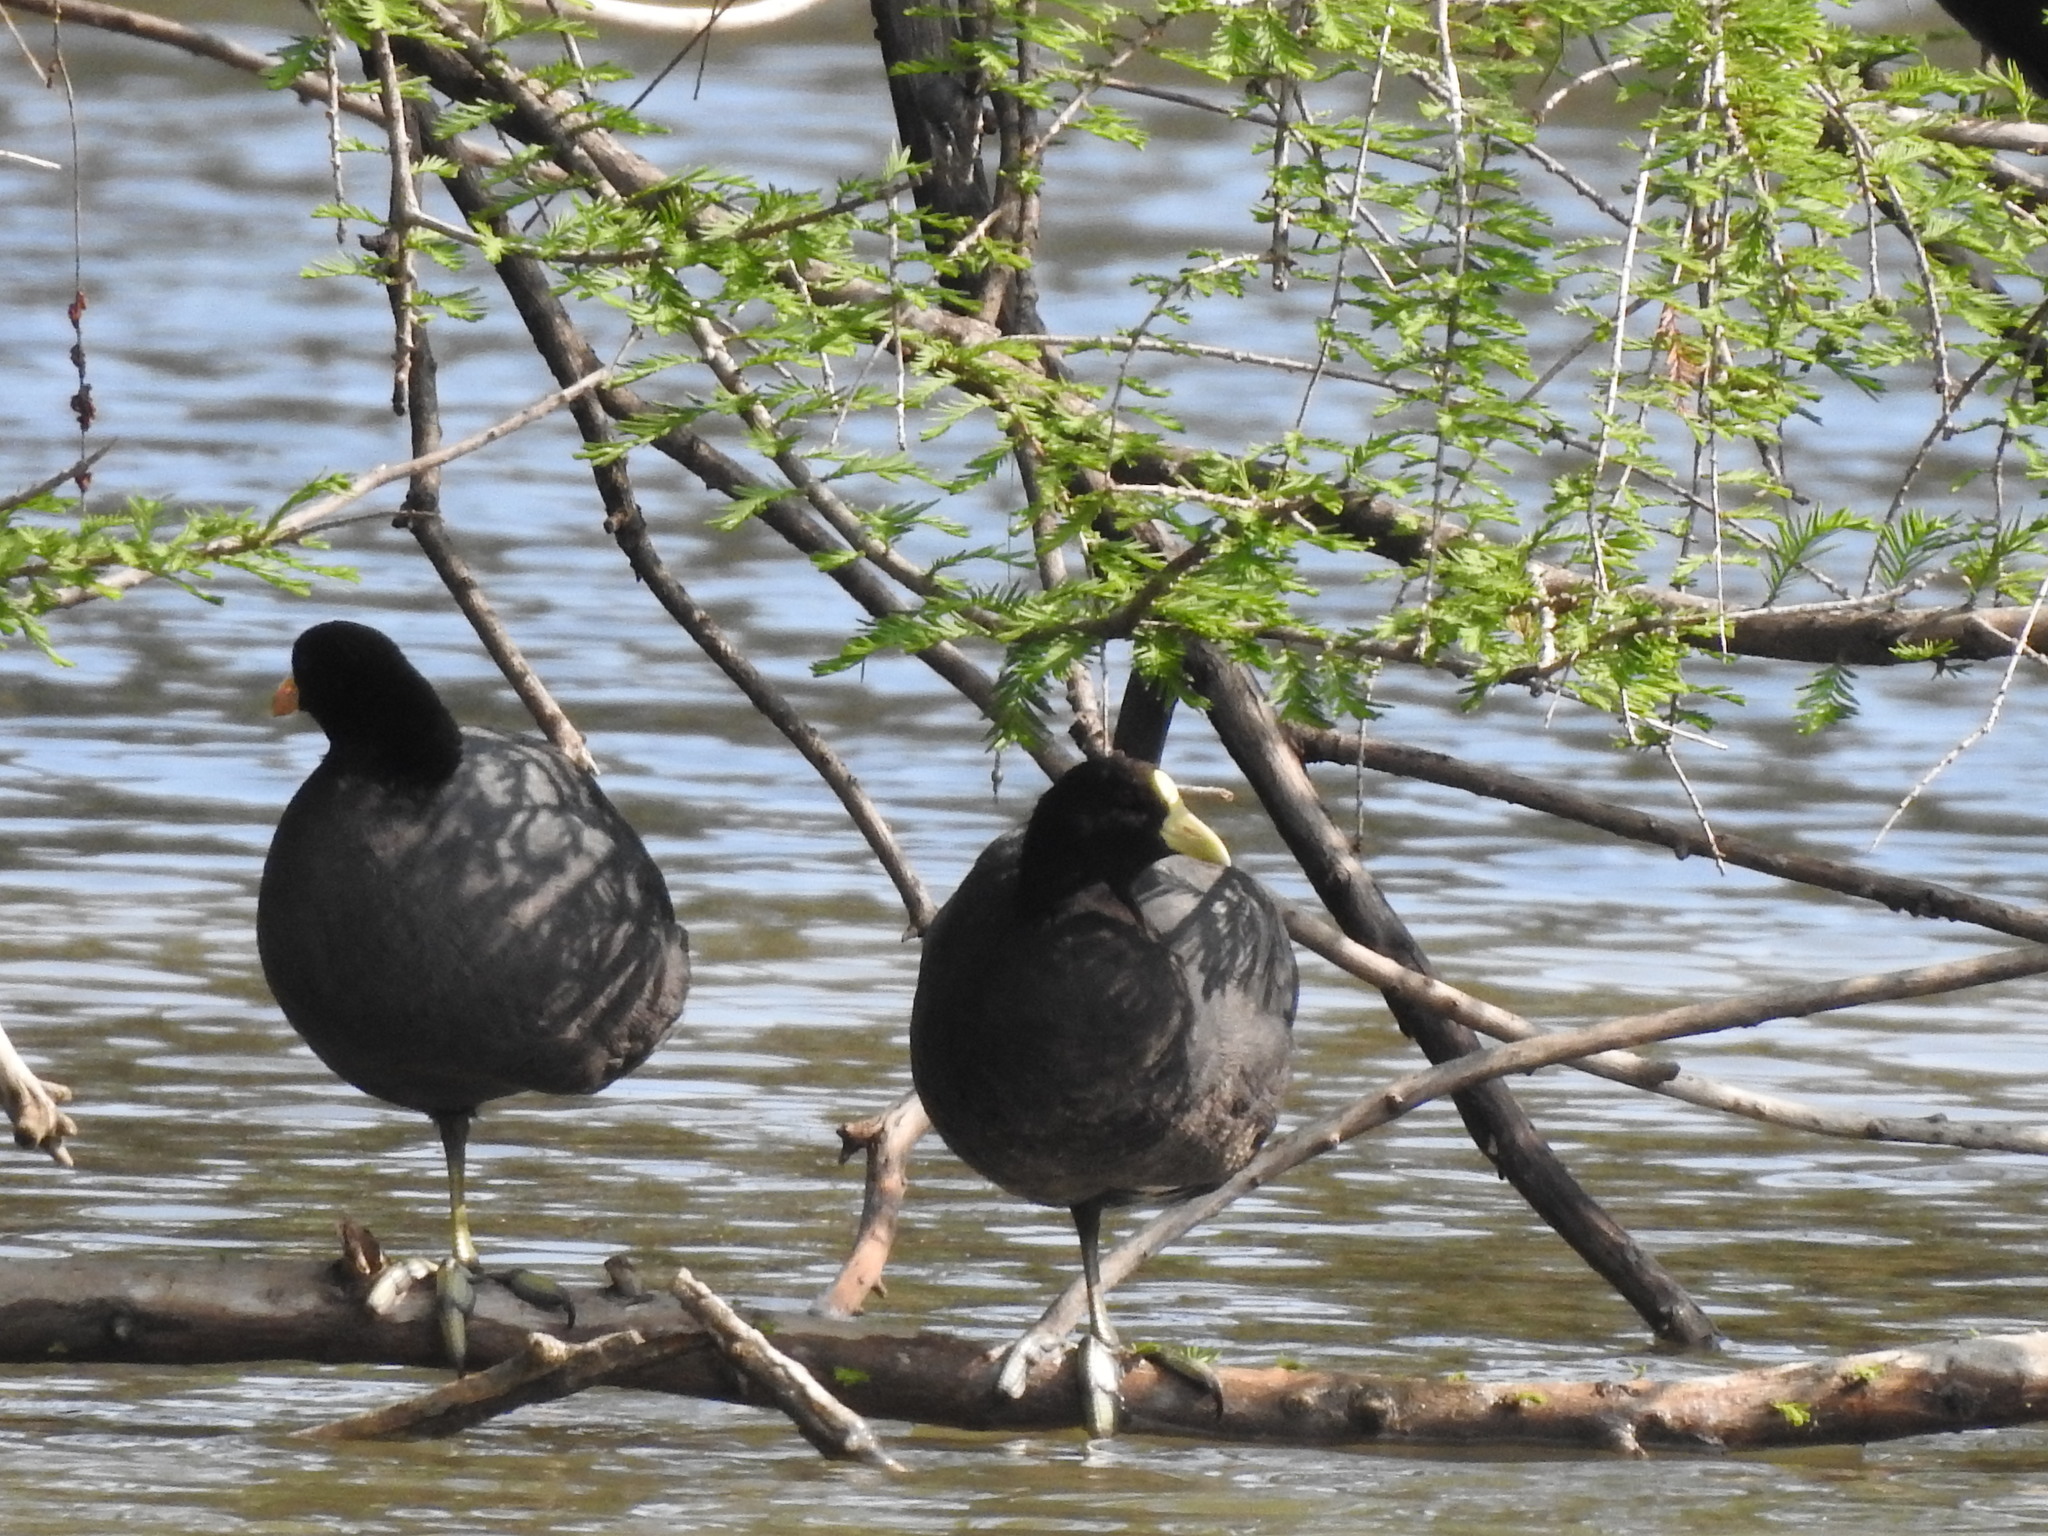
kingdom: Animalia
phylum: Chordata
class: Aves
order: Gruiformes
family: Rallidae
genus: Fulica
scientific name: Fulica leucoptera
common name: White-winged coot
